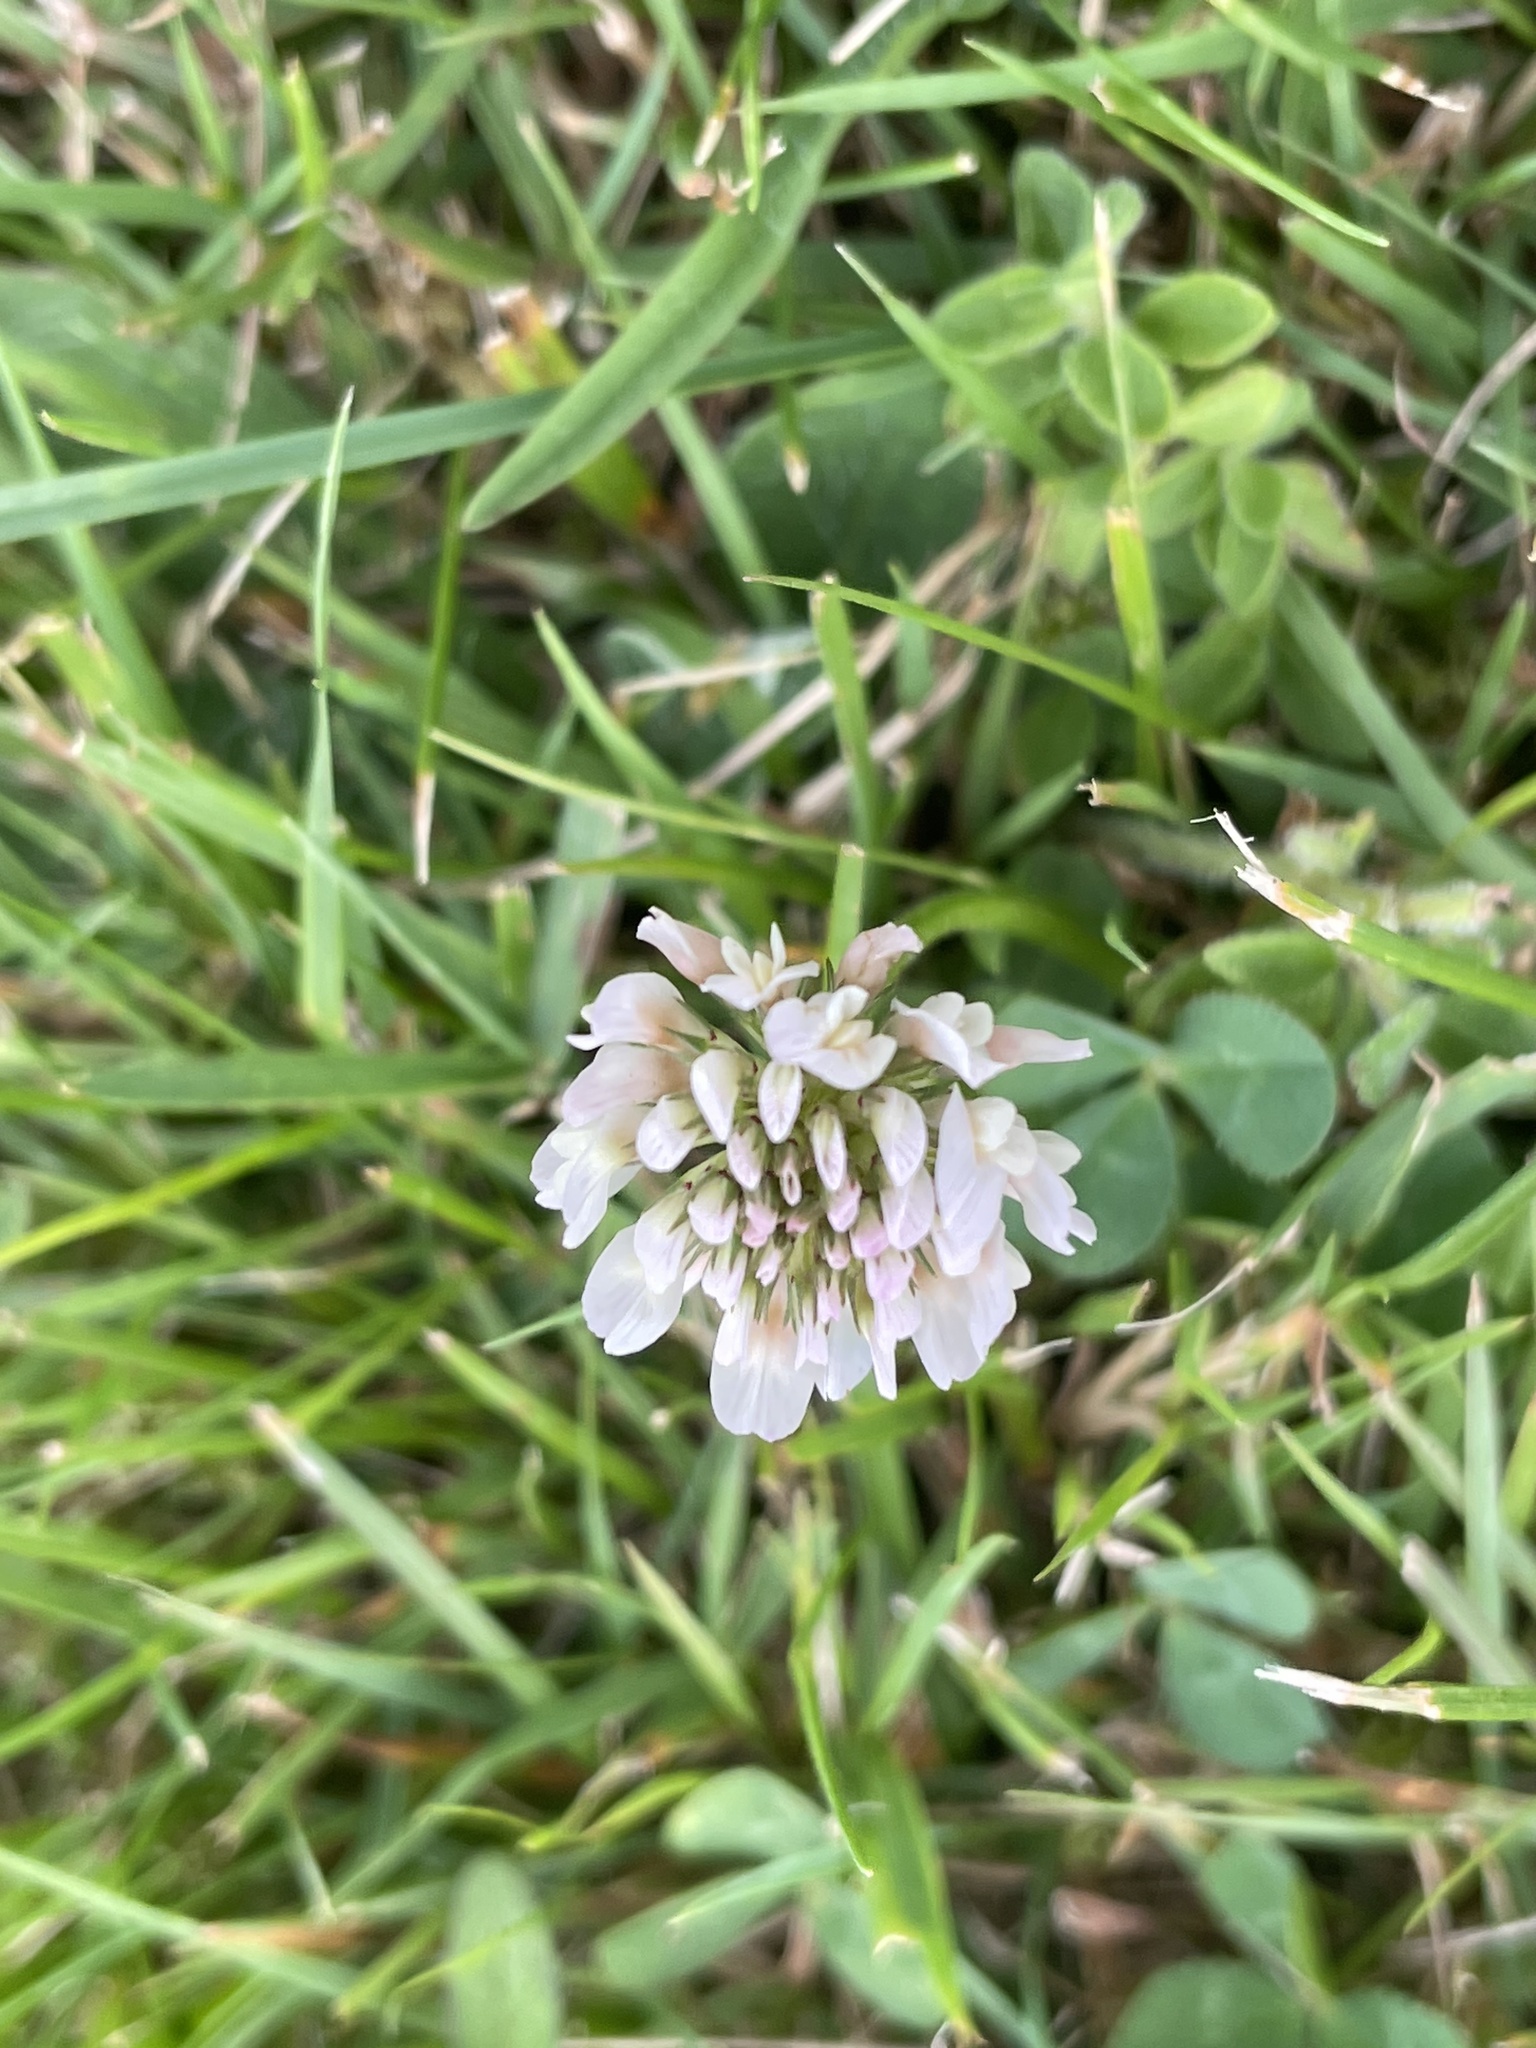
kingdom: Plantae
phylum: Tracheophyta
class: Magnoliopsida
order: Fabales
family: Fabaceae
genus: Trifolium
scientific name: Trifolium repens
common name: White clover
